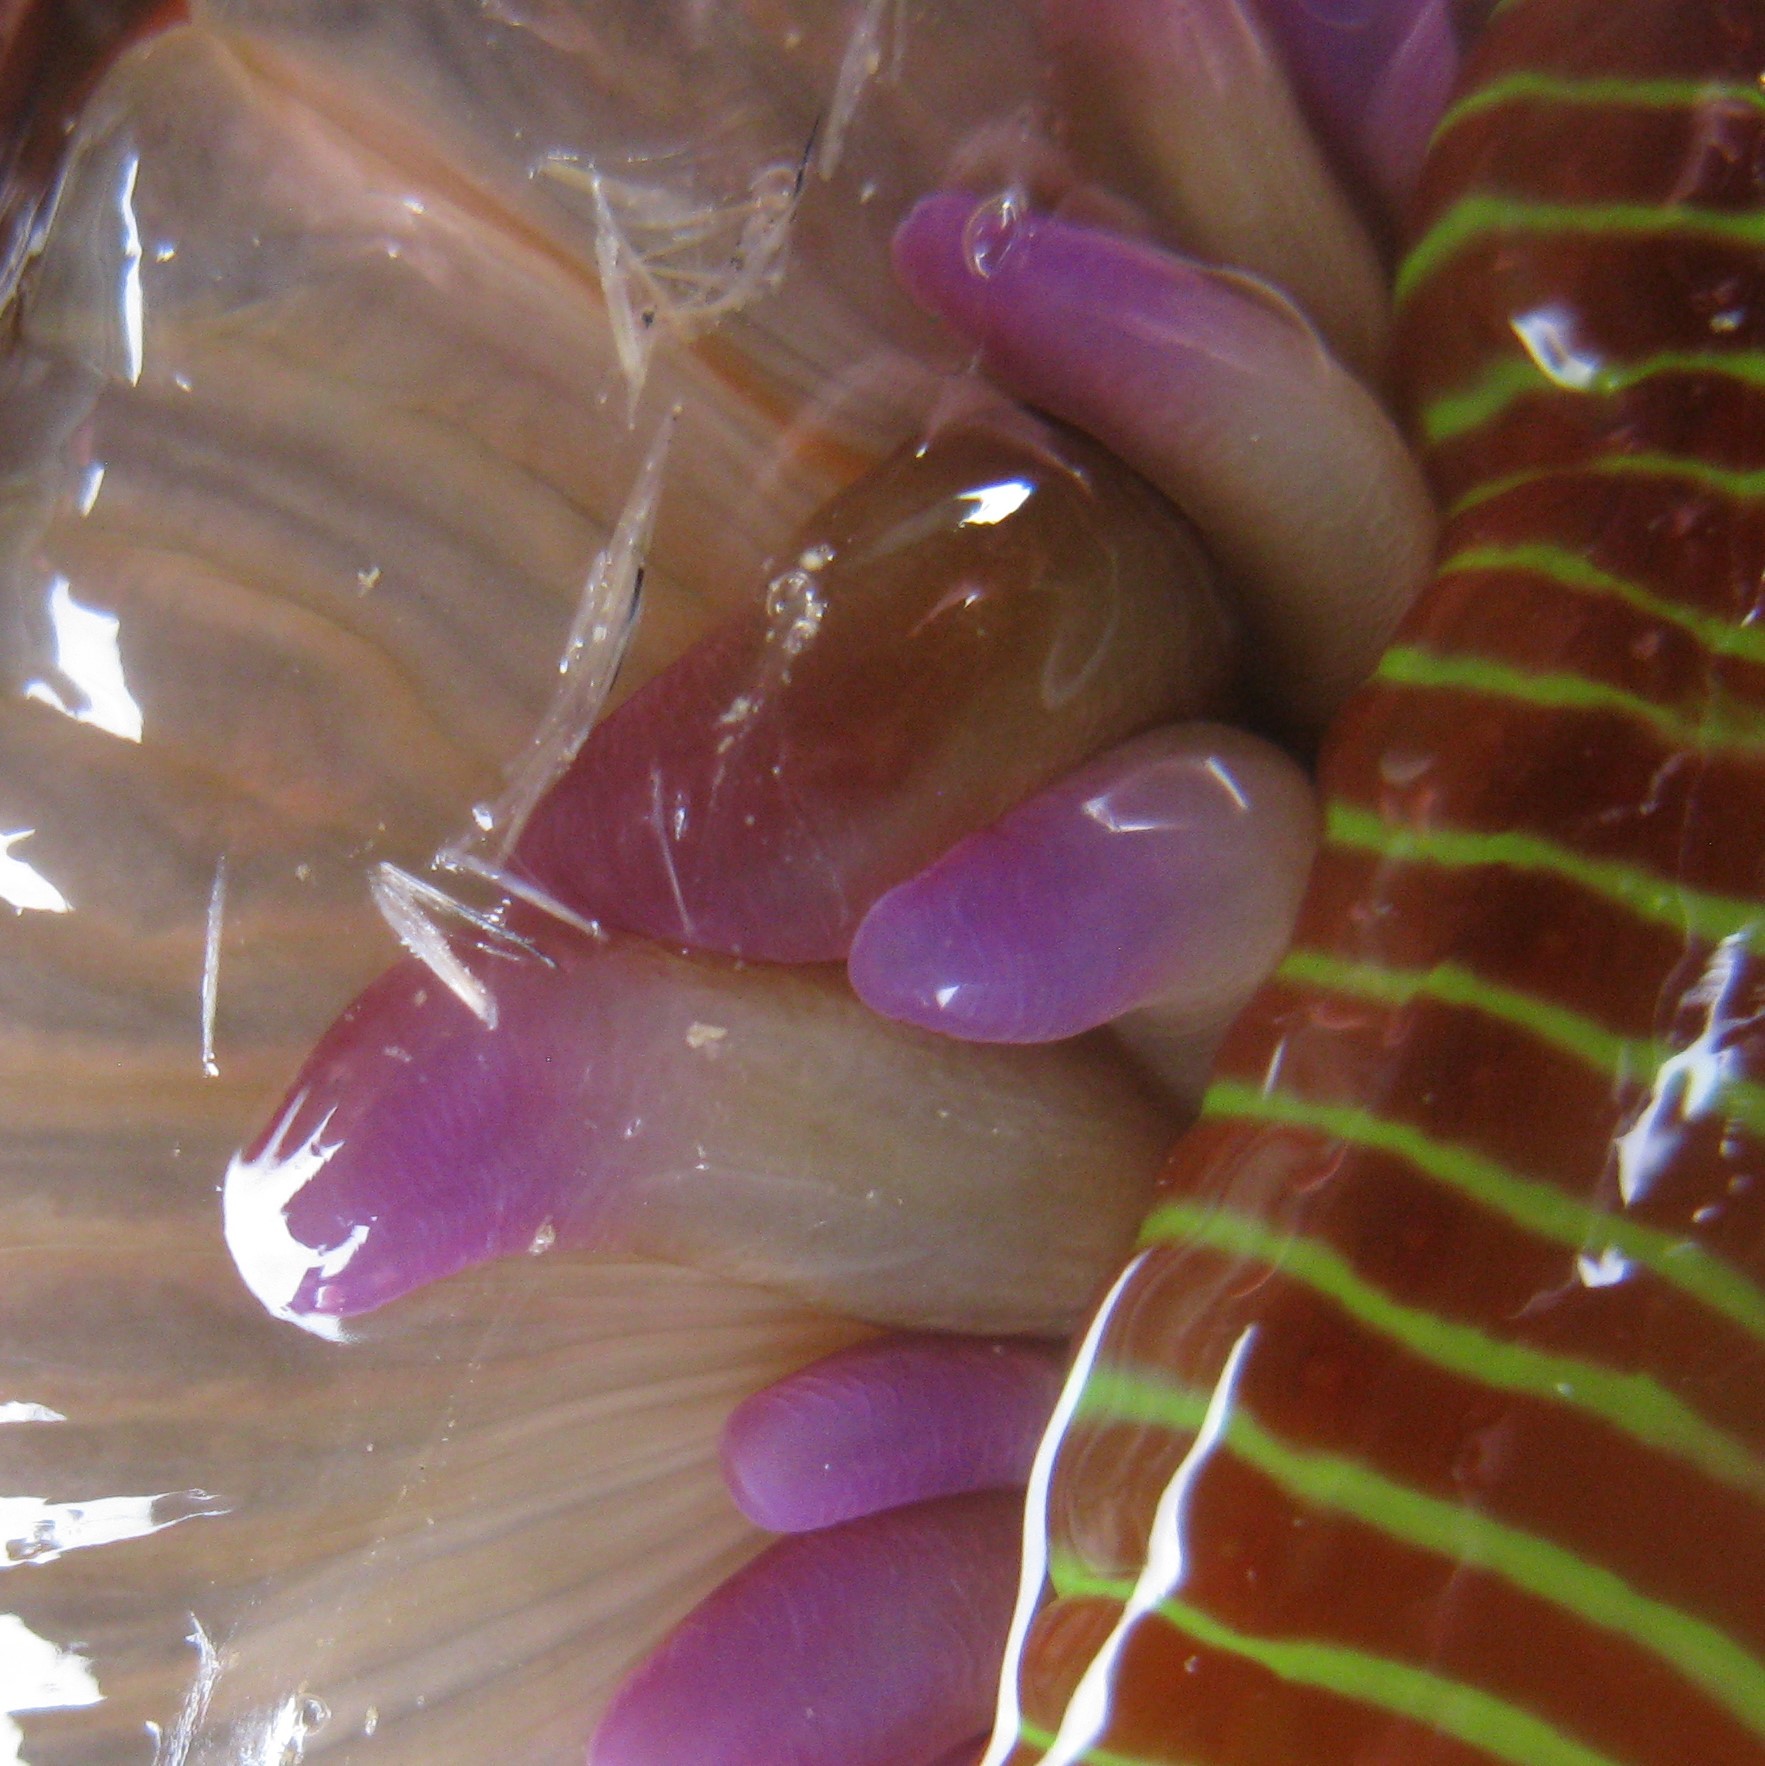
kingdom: Animalia
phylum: Cnidaria
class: Anthozoa
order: Actiniaria
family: Actiniidae
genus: Epiactis
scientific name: Epiactis thompsoni
